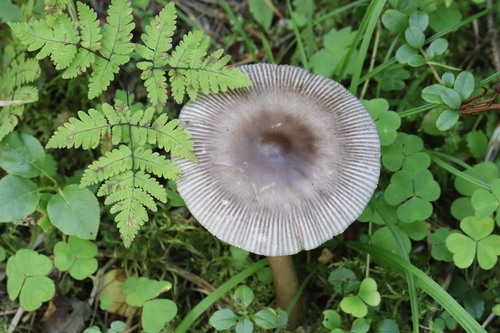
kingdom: Fungi
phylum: Basidiomycota
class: Agaricomycetes
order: Agaricales
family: Amanitaceae
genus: Amanita
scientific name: Amanita battarrae
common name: Banded amanita
